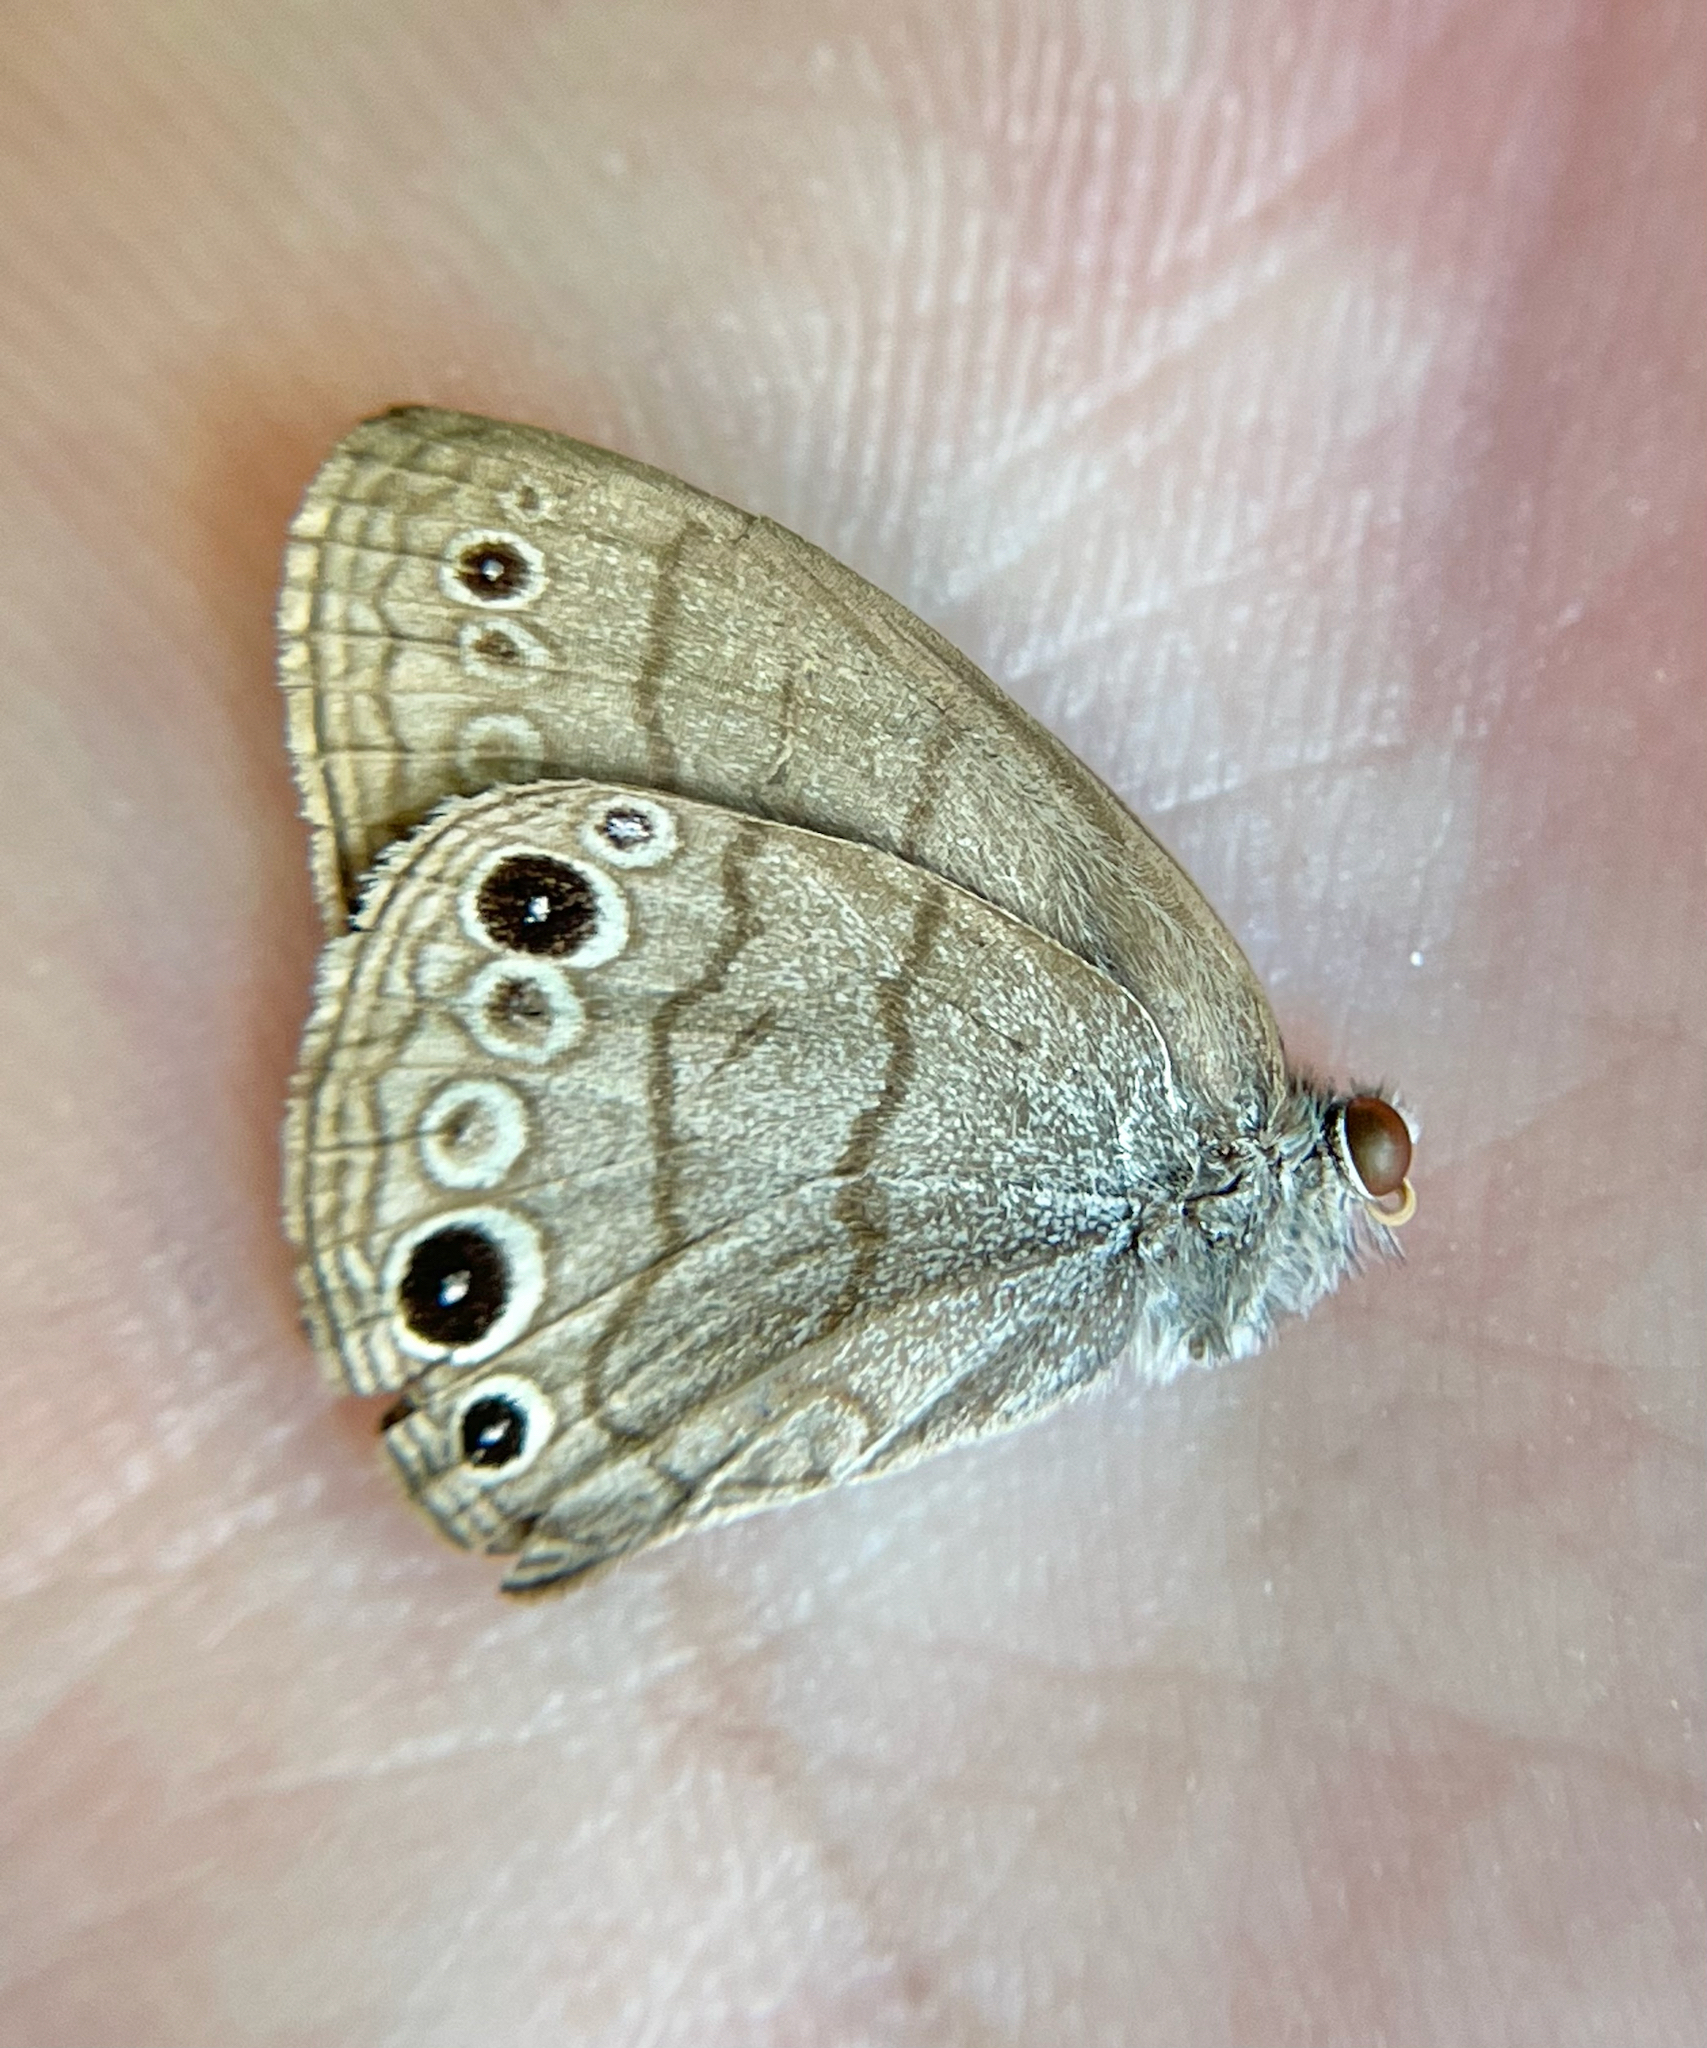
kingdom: Animalia
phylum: Arthropoda
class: Insecta
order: Lepidoptera
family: Nymphalidae
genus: Hermeuptychia
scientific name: Hermeuptychia hermes
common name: Hermes satyr
